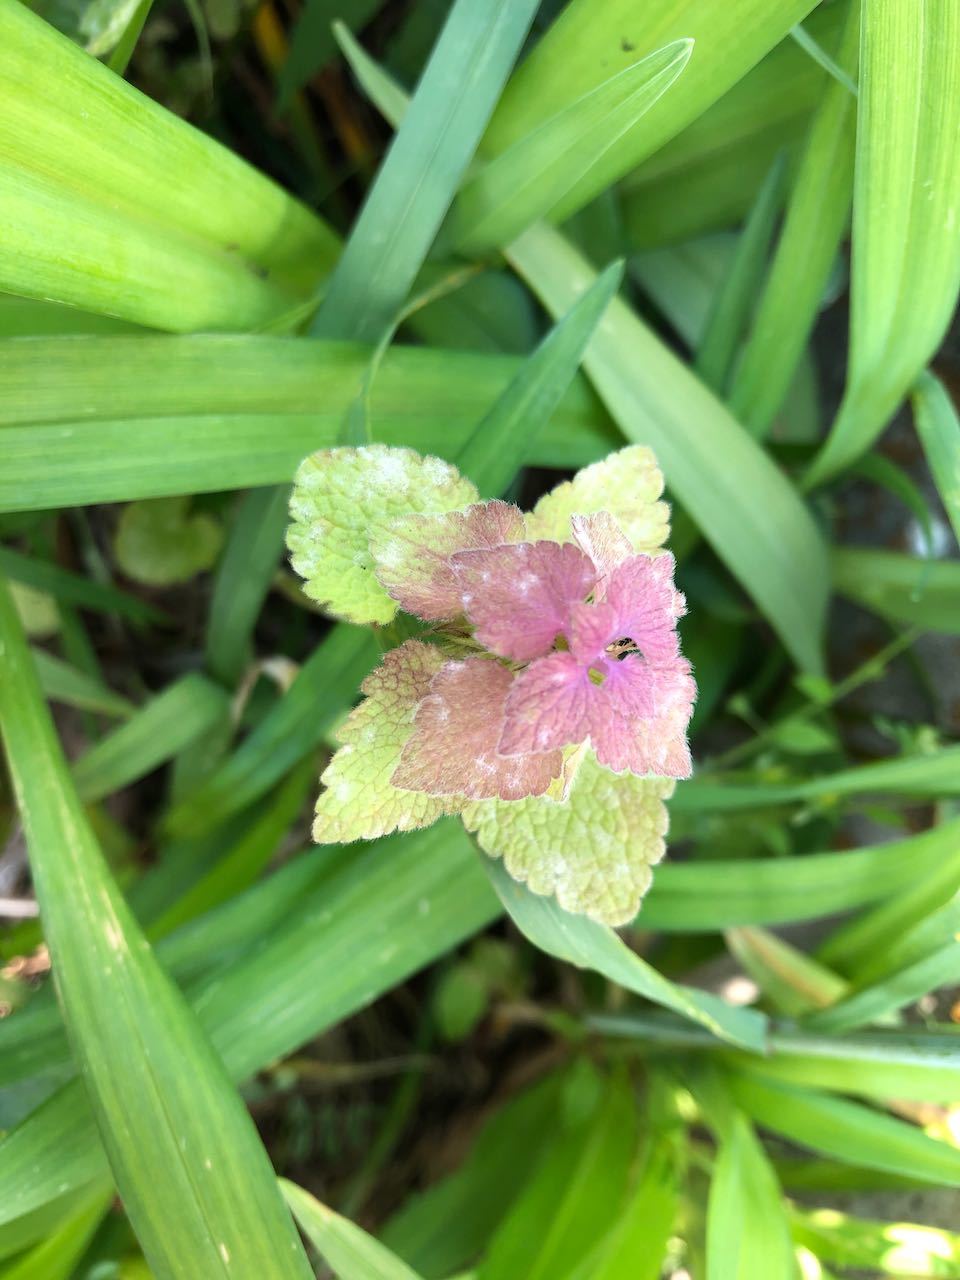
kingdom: Plantae
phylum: Tracheophyta
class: Magnoliopsida
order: Lamiales
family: Lamiaceae
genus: Lamium
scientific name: Lamium purpureum
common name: Red dead-nettle
